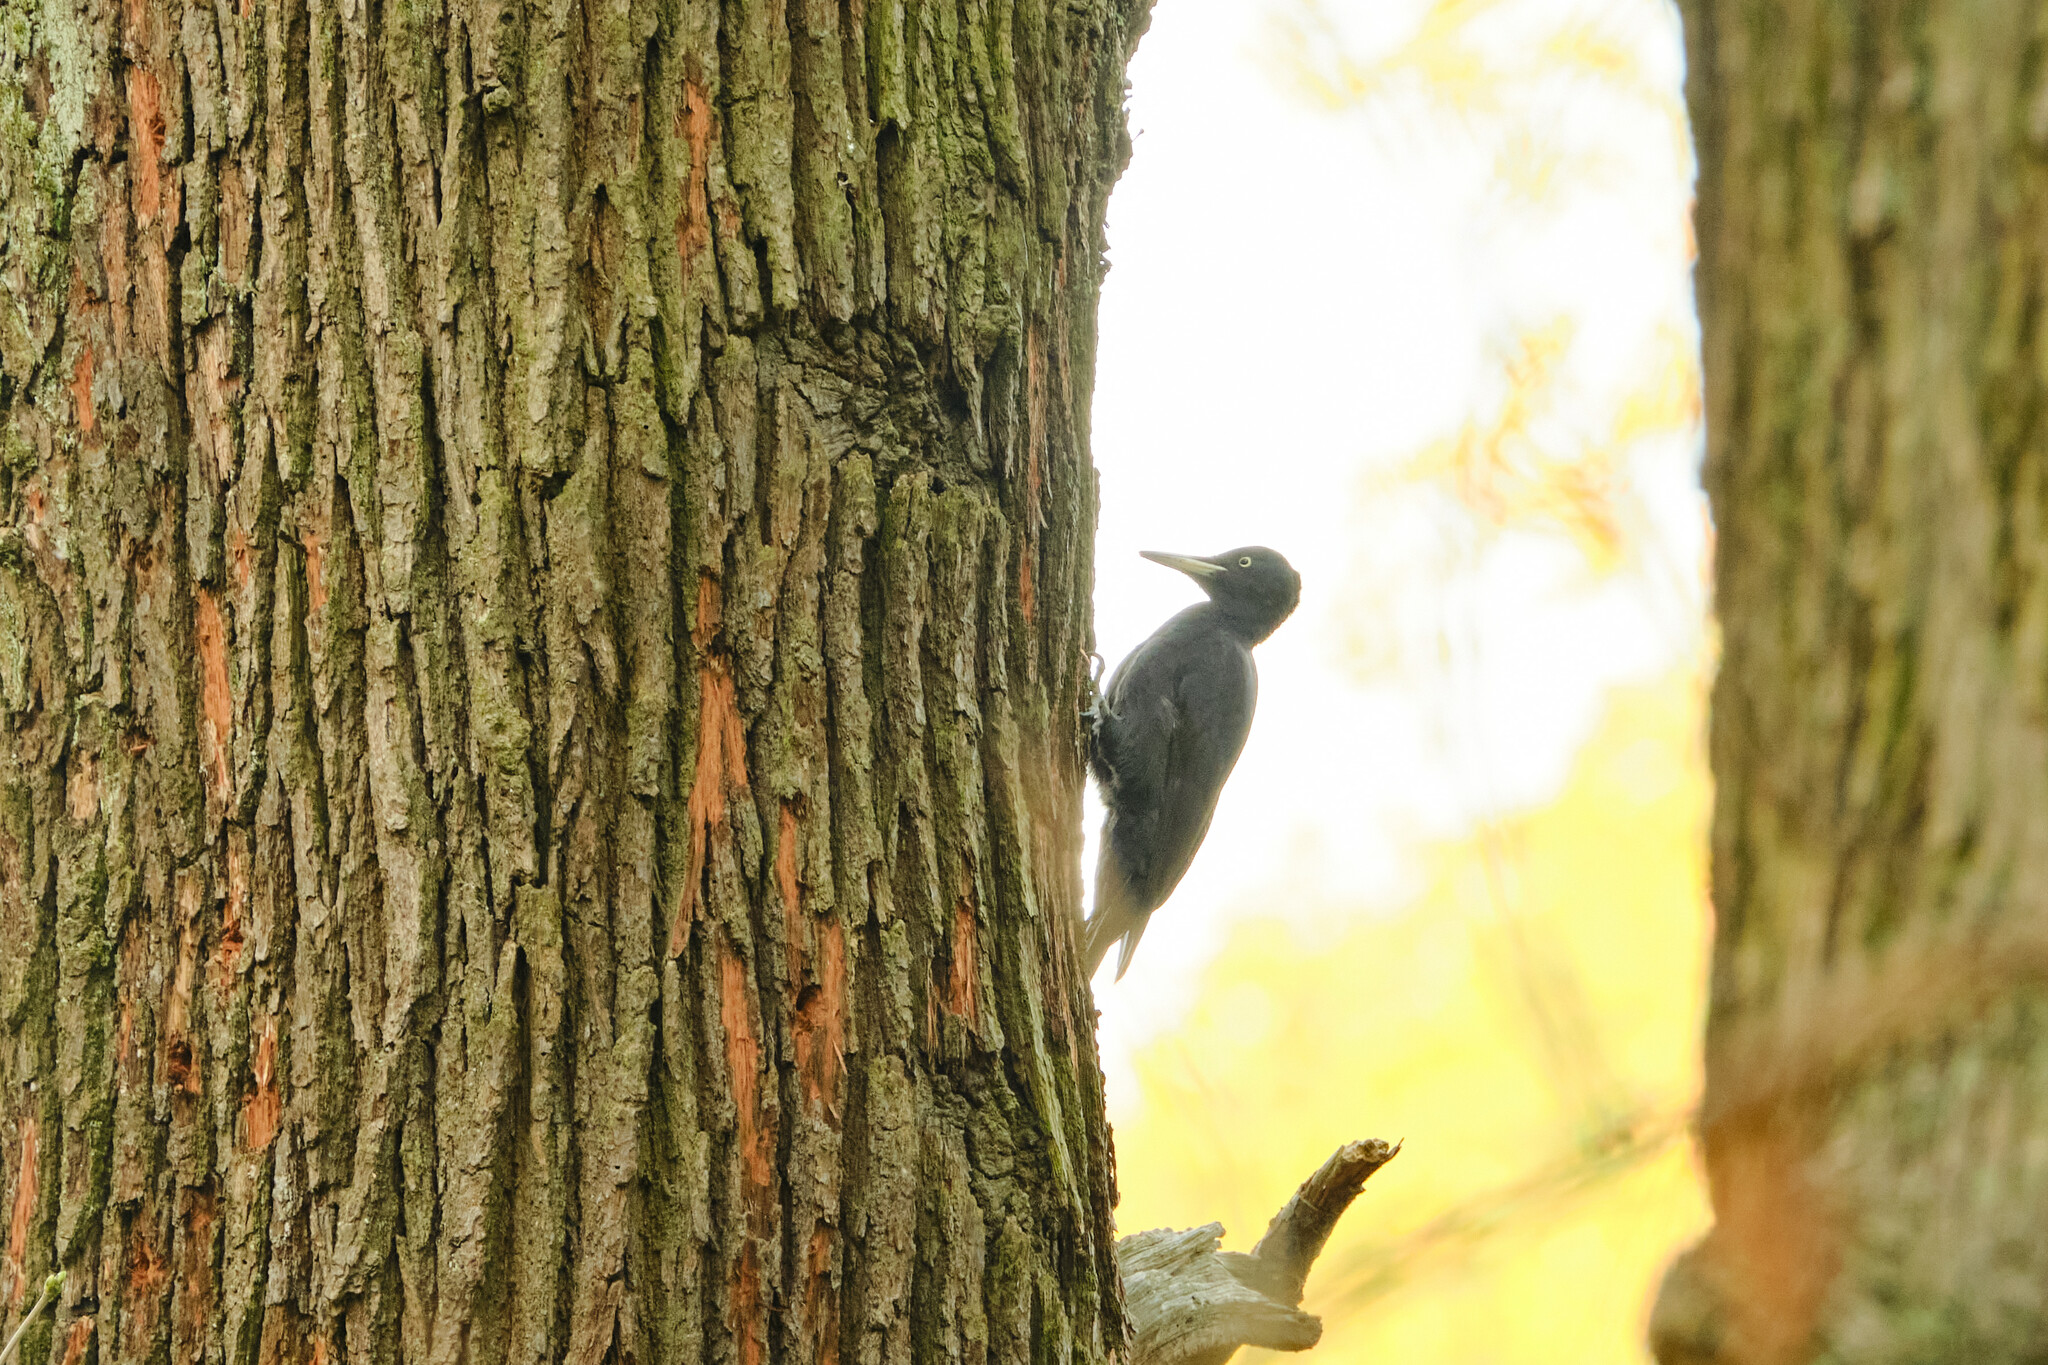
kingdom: Animalia
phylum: Chordata
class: Aves
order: Piciformes
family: Picidae
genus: Dryocopus
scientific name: Dryocopus martius
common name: Black woodpecker
